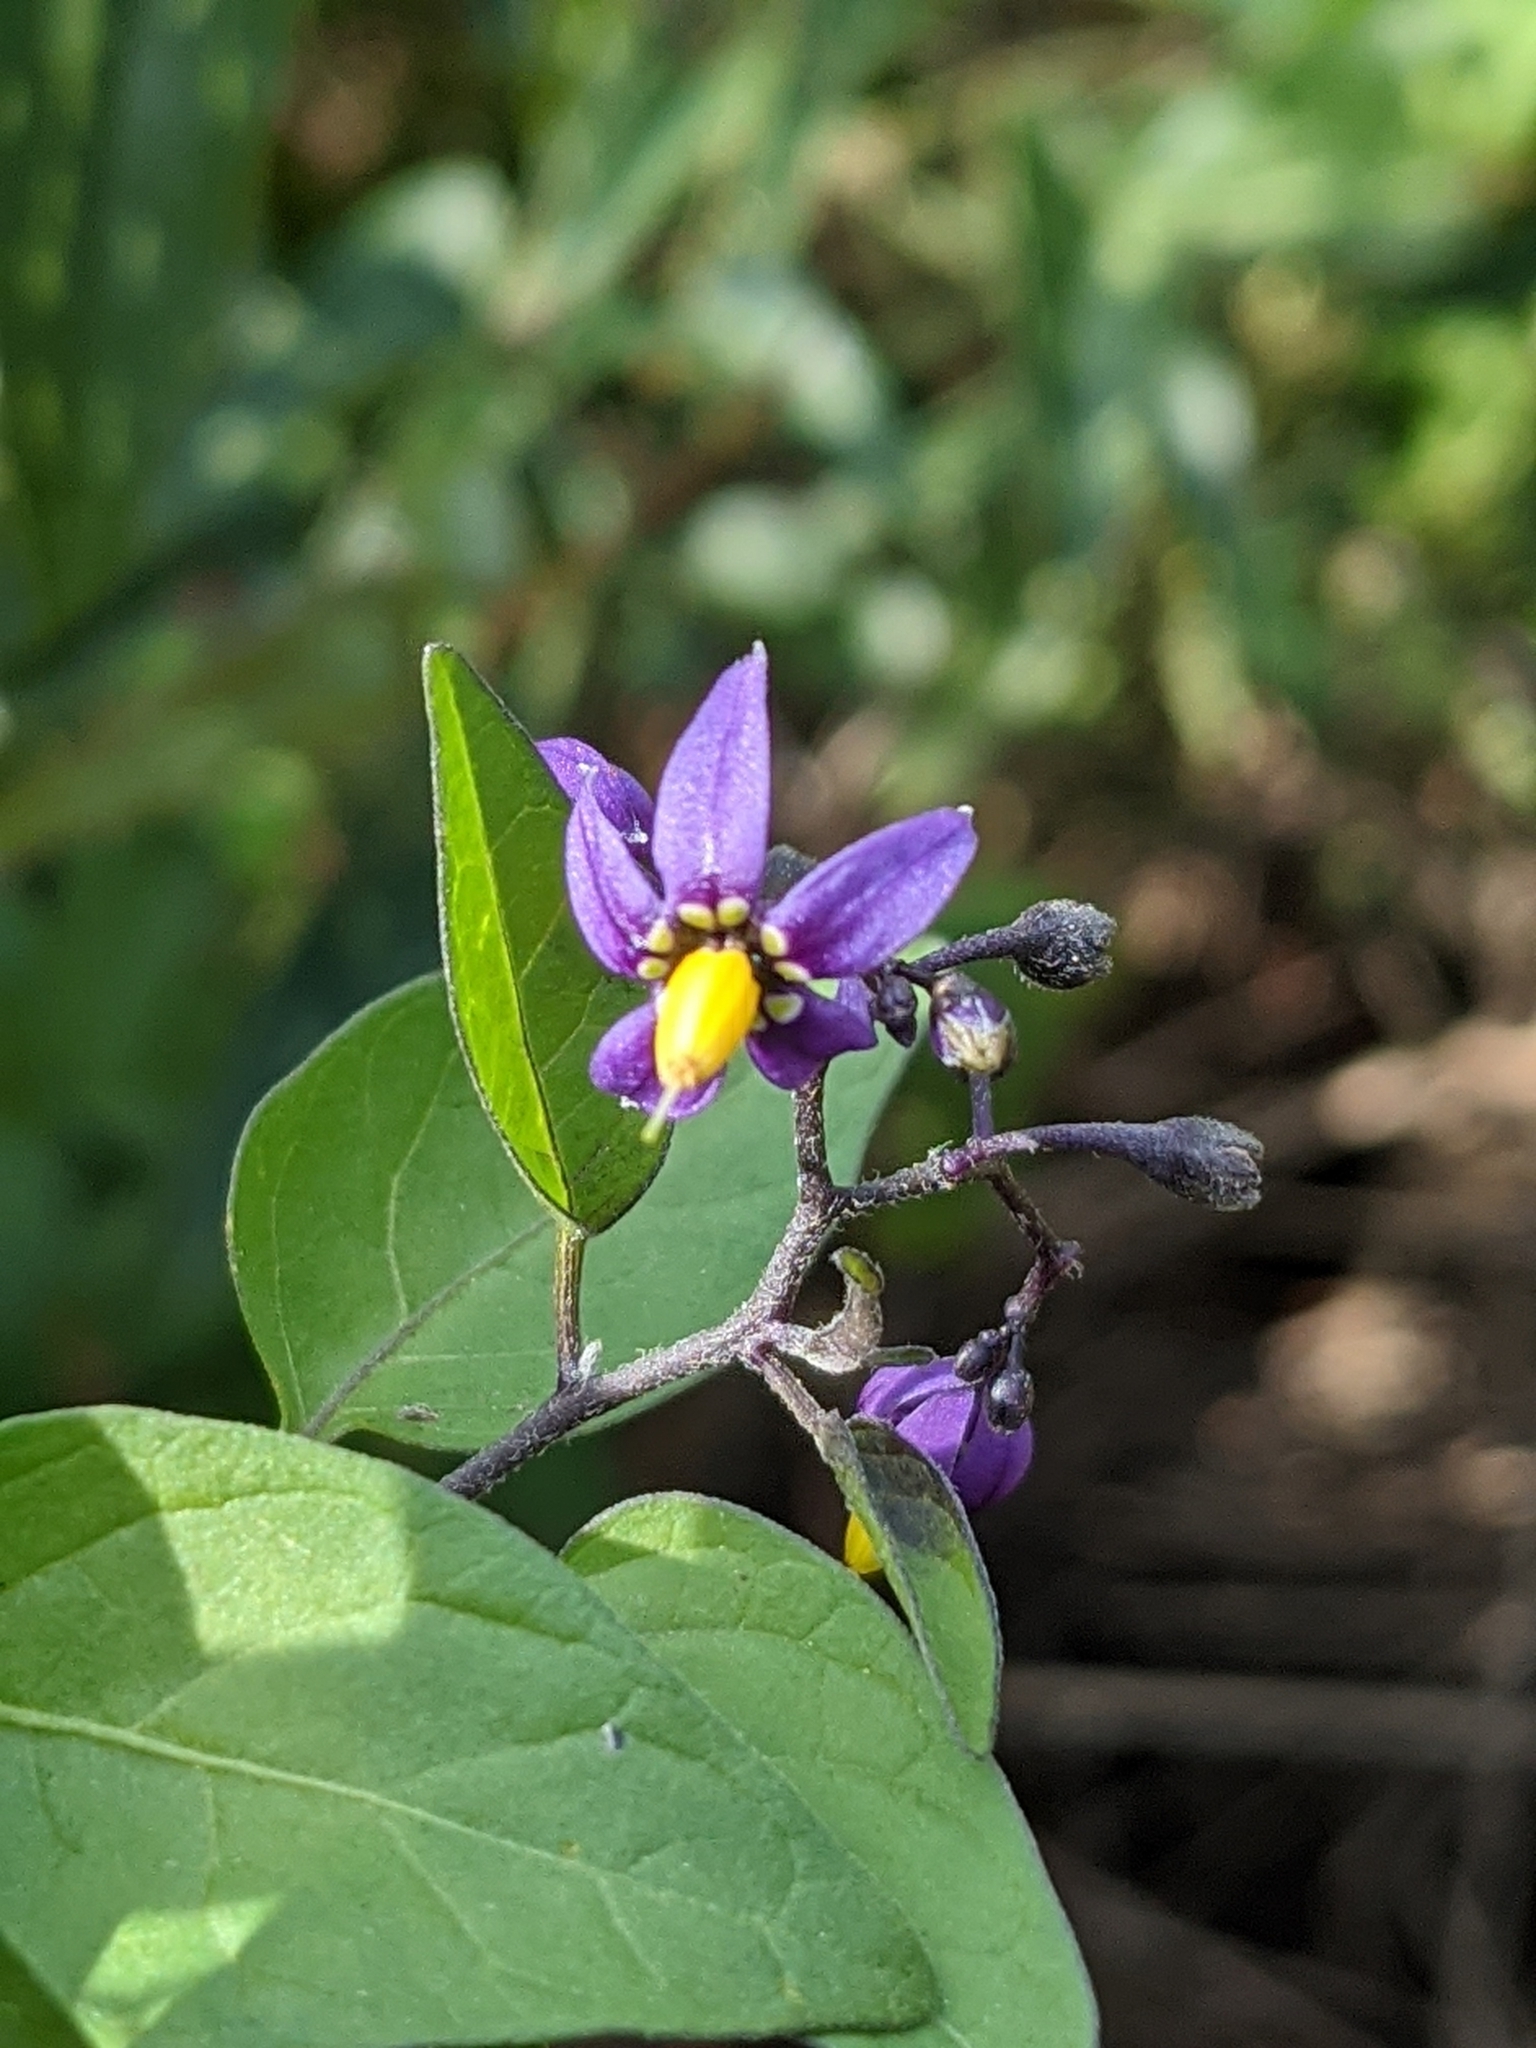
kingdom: Plantae
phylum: Tracheophyta
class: Magnoliopsida
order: Solanales
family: Solanaceae
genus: Solanum
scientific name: Solanum dulcamara
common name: Climbing nightshade
